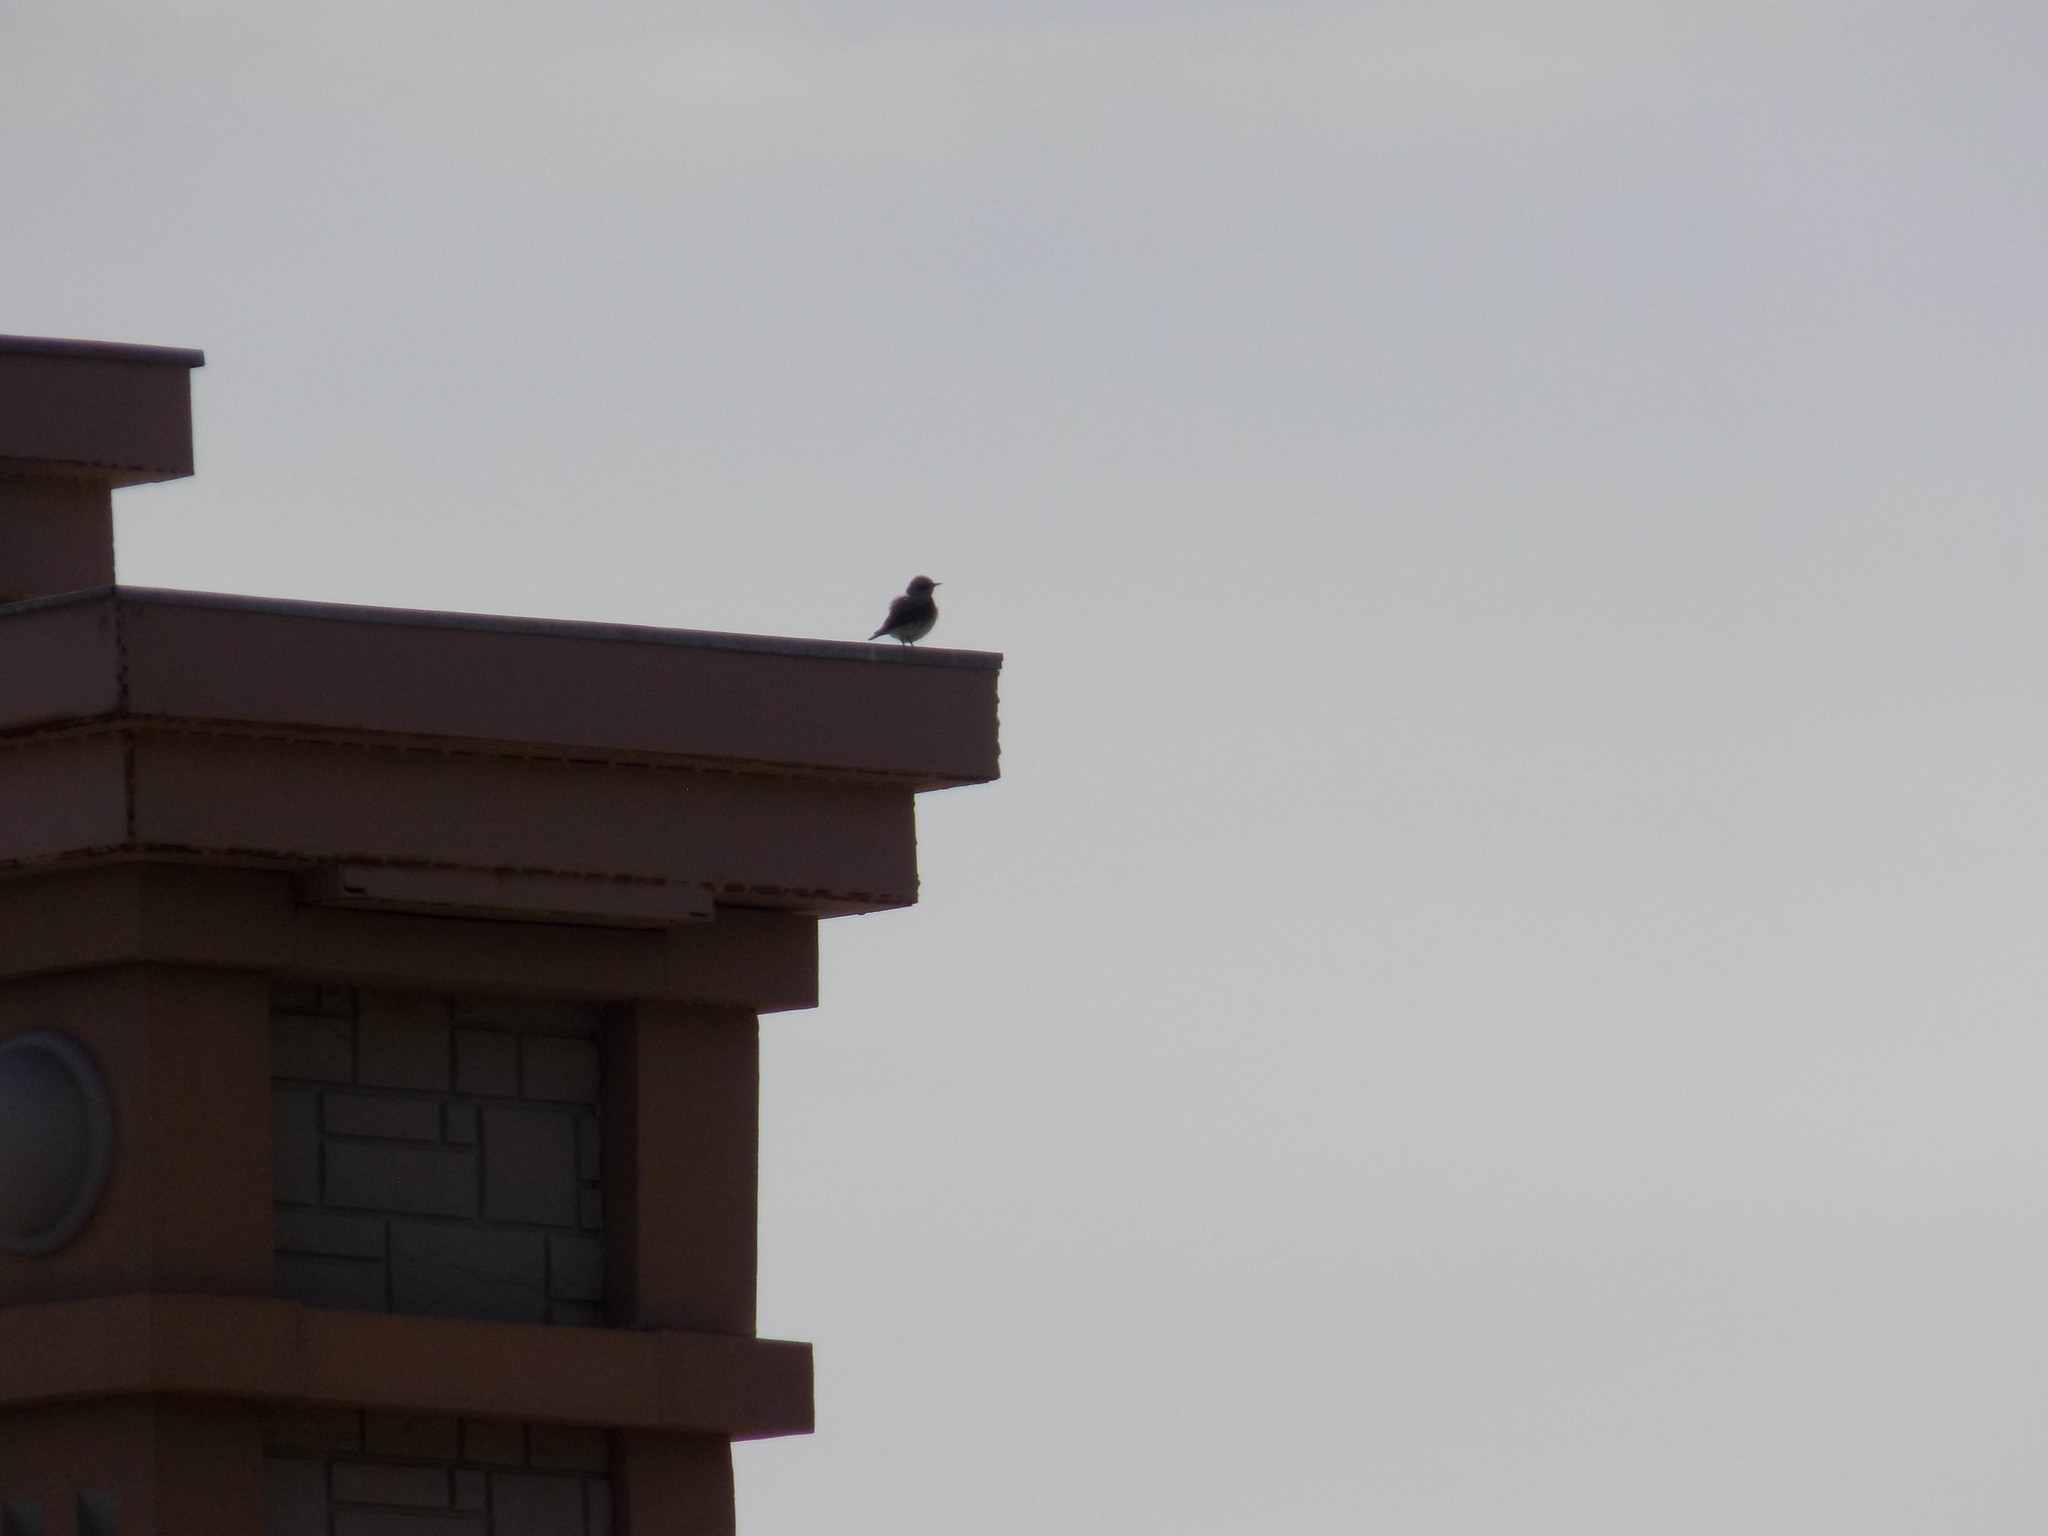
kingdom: Animalia
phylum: Chordata
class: Aves
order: Passeriformes
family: Muscicapidae
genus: Oenanthe
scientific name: Oenanthe oenanthe
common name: Northern wheatear
